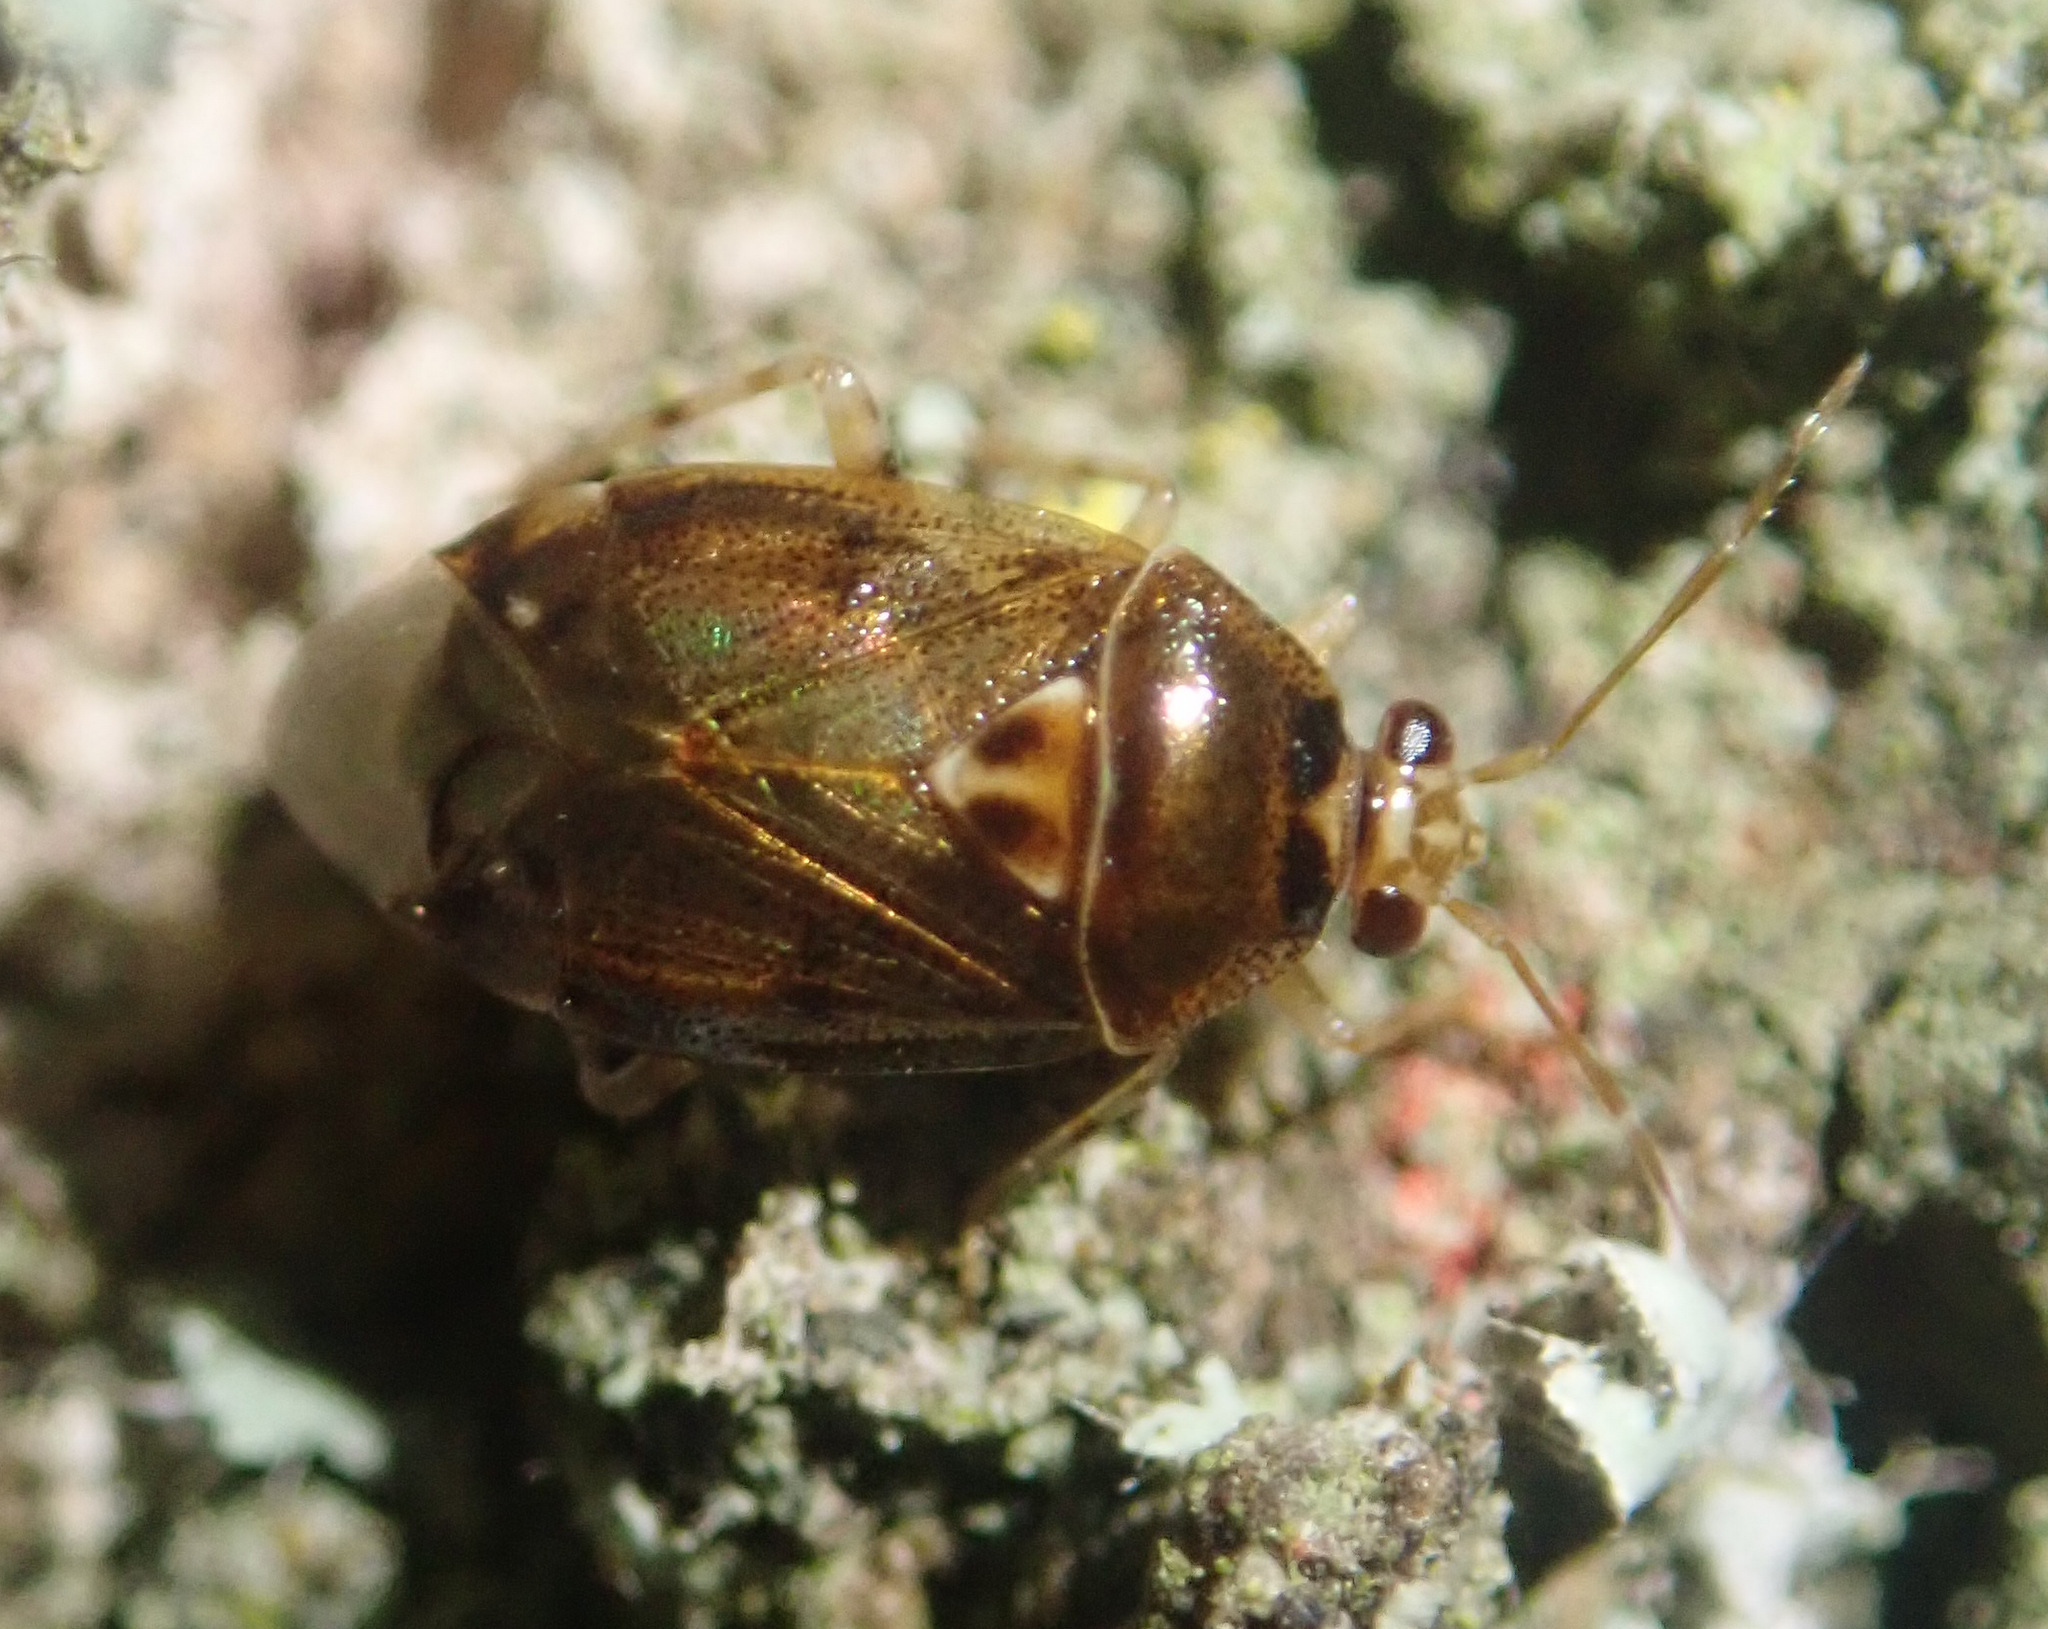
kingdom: Animalia
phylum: Arthropoda
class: Insecta
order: Hemiptera
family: Miridae
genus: Deraeocoris
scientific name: Deraeocoris lutescens
